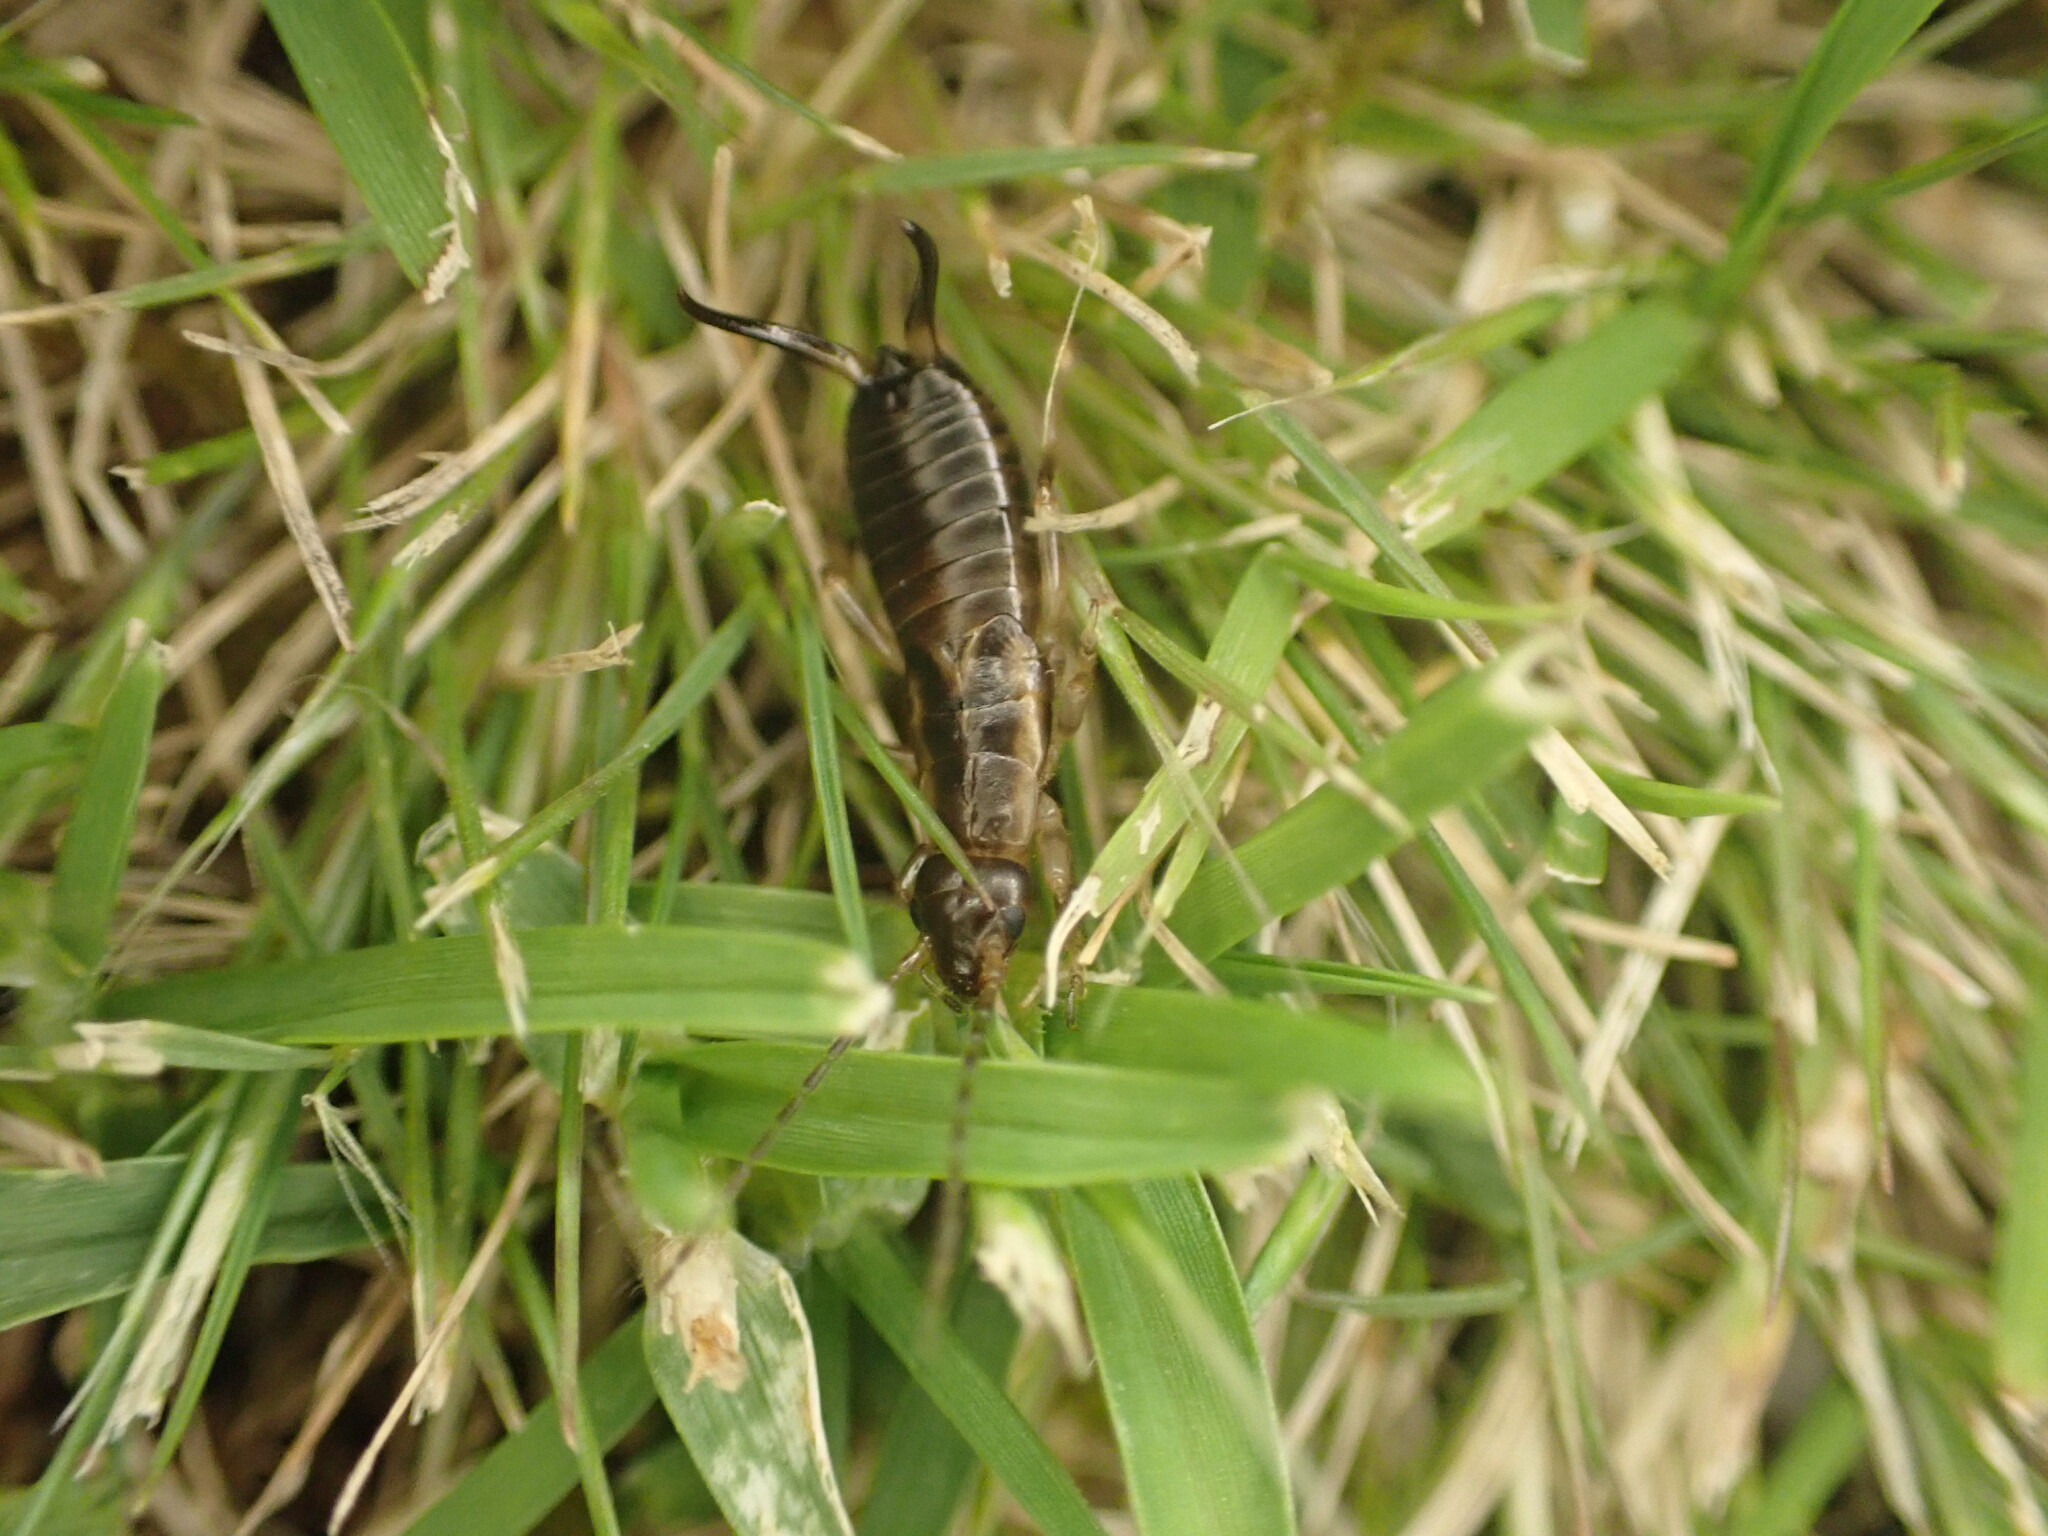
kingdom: Animalia
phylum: Arthropoda
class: Insecta
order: Dermaptera
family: Forficulidae
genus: Forficula
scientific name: Forficula dentata
